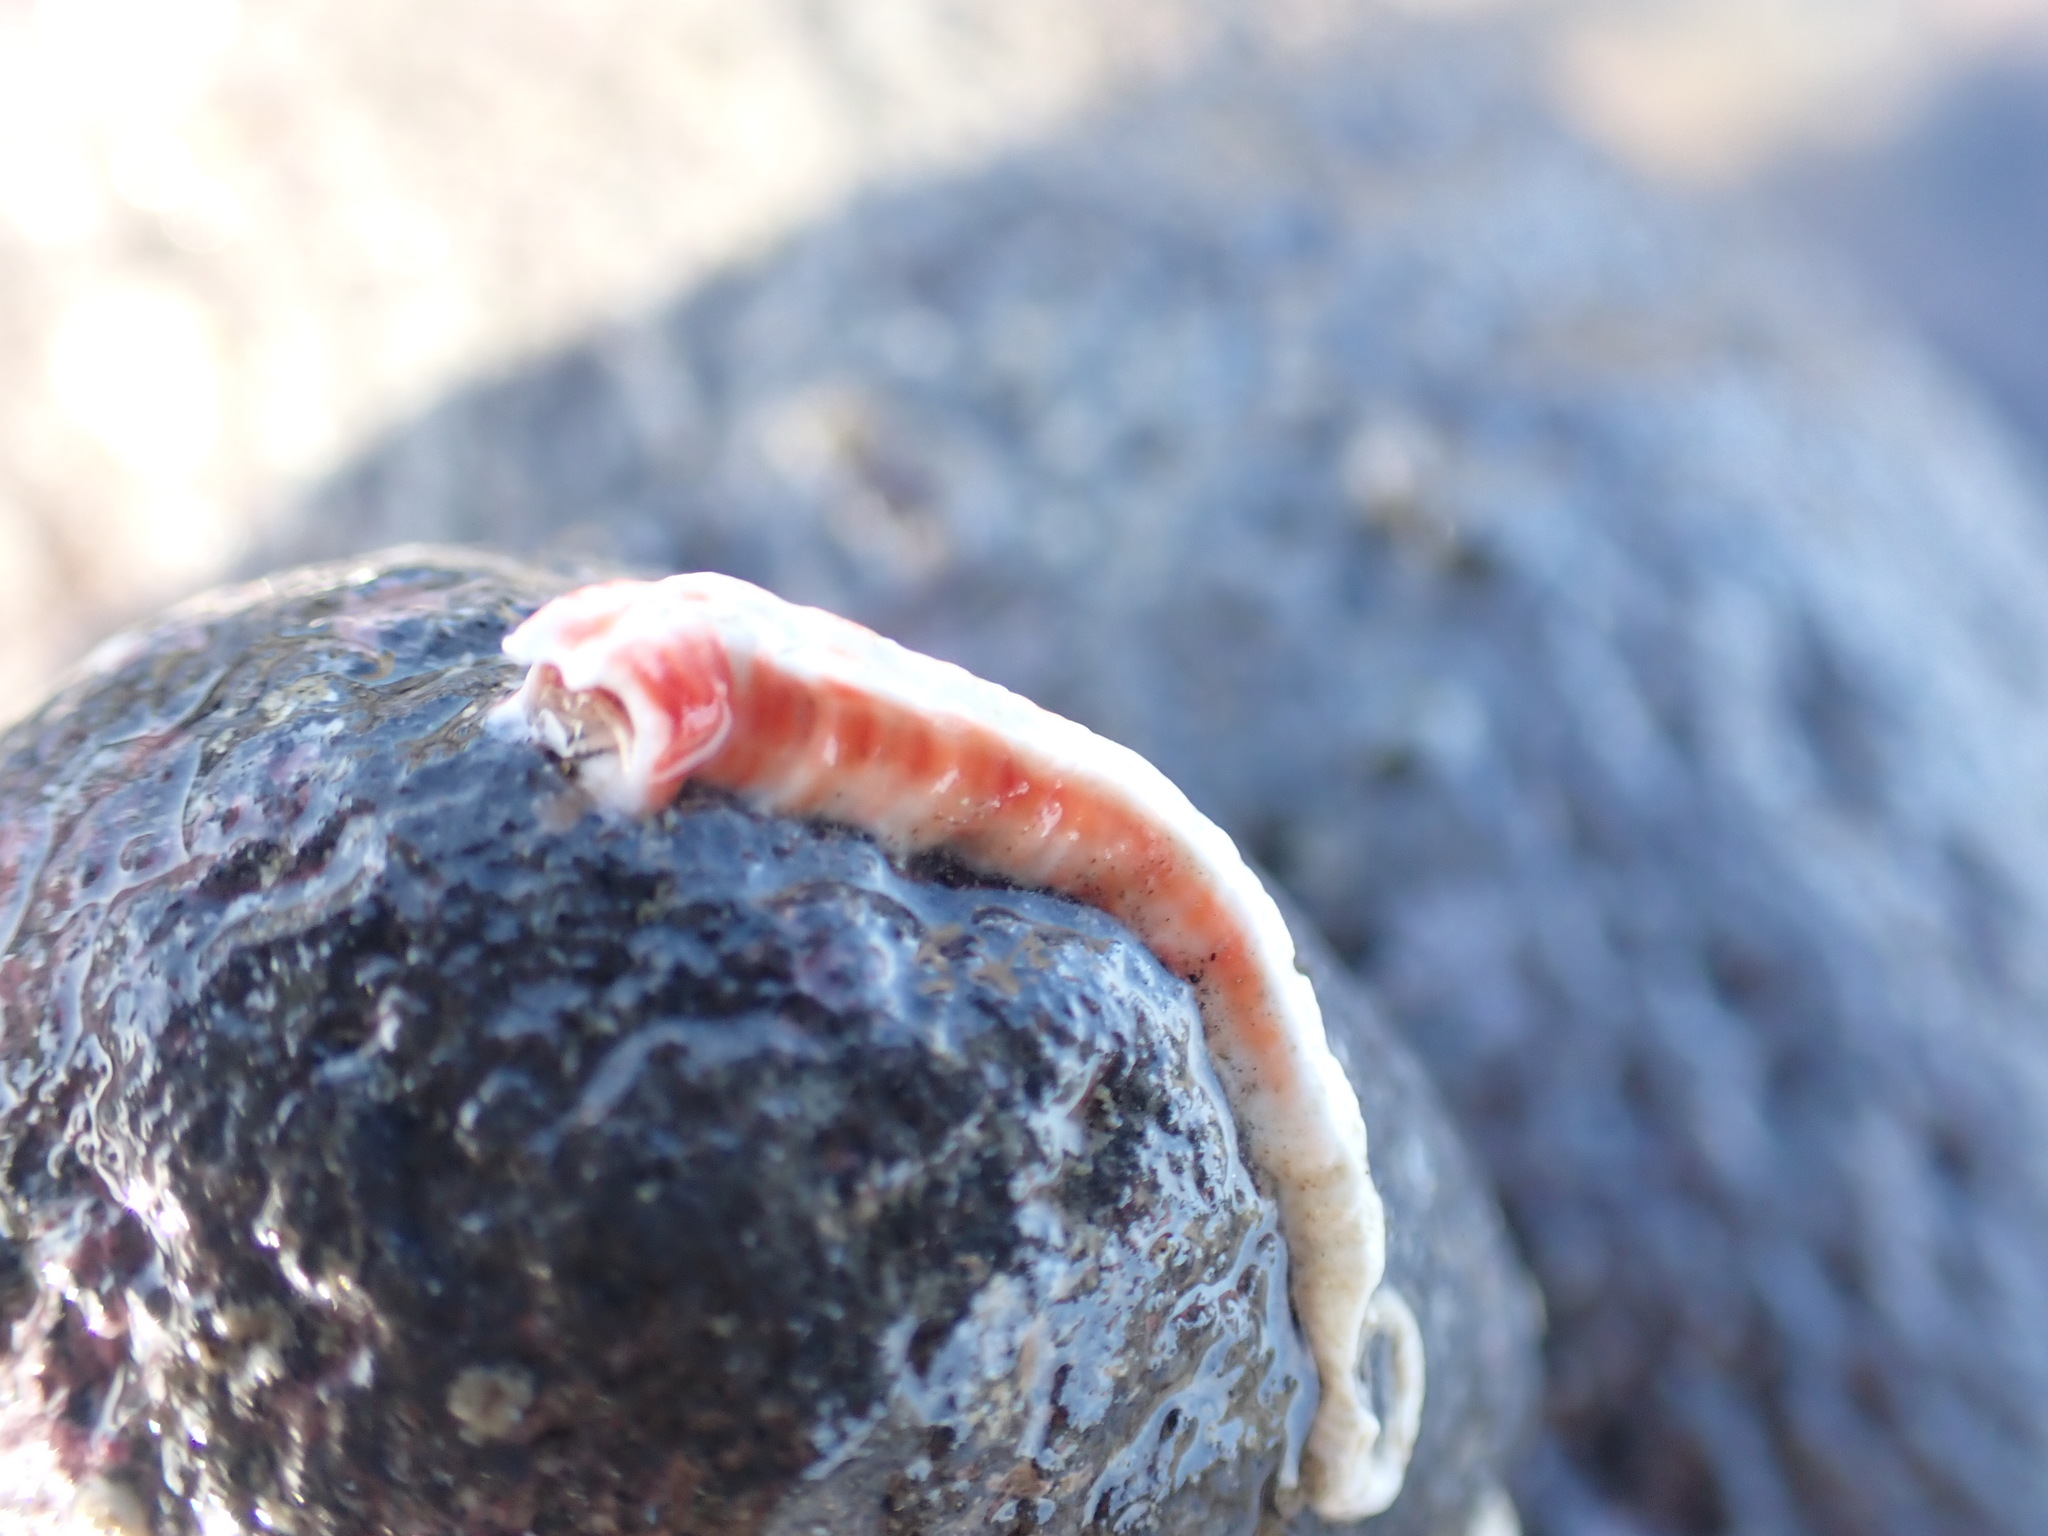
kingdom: Animalia
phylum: Annelida
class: Polychaeta
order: Sabellida
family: Serpulidae
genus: Galeolaria
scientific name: Galeolaria hystrix
